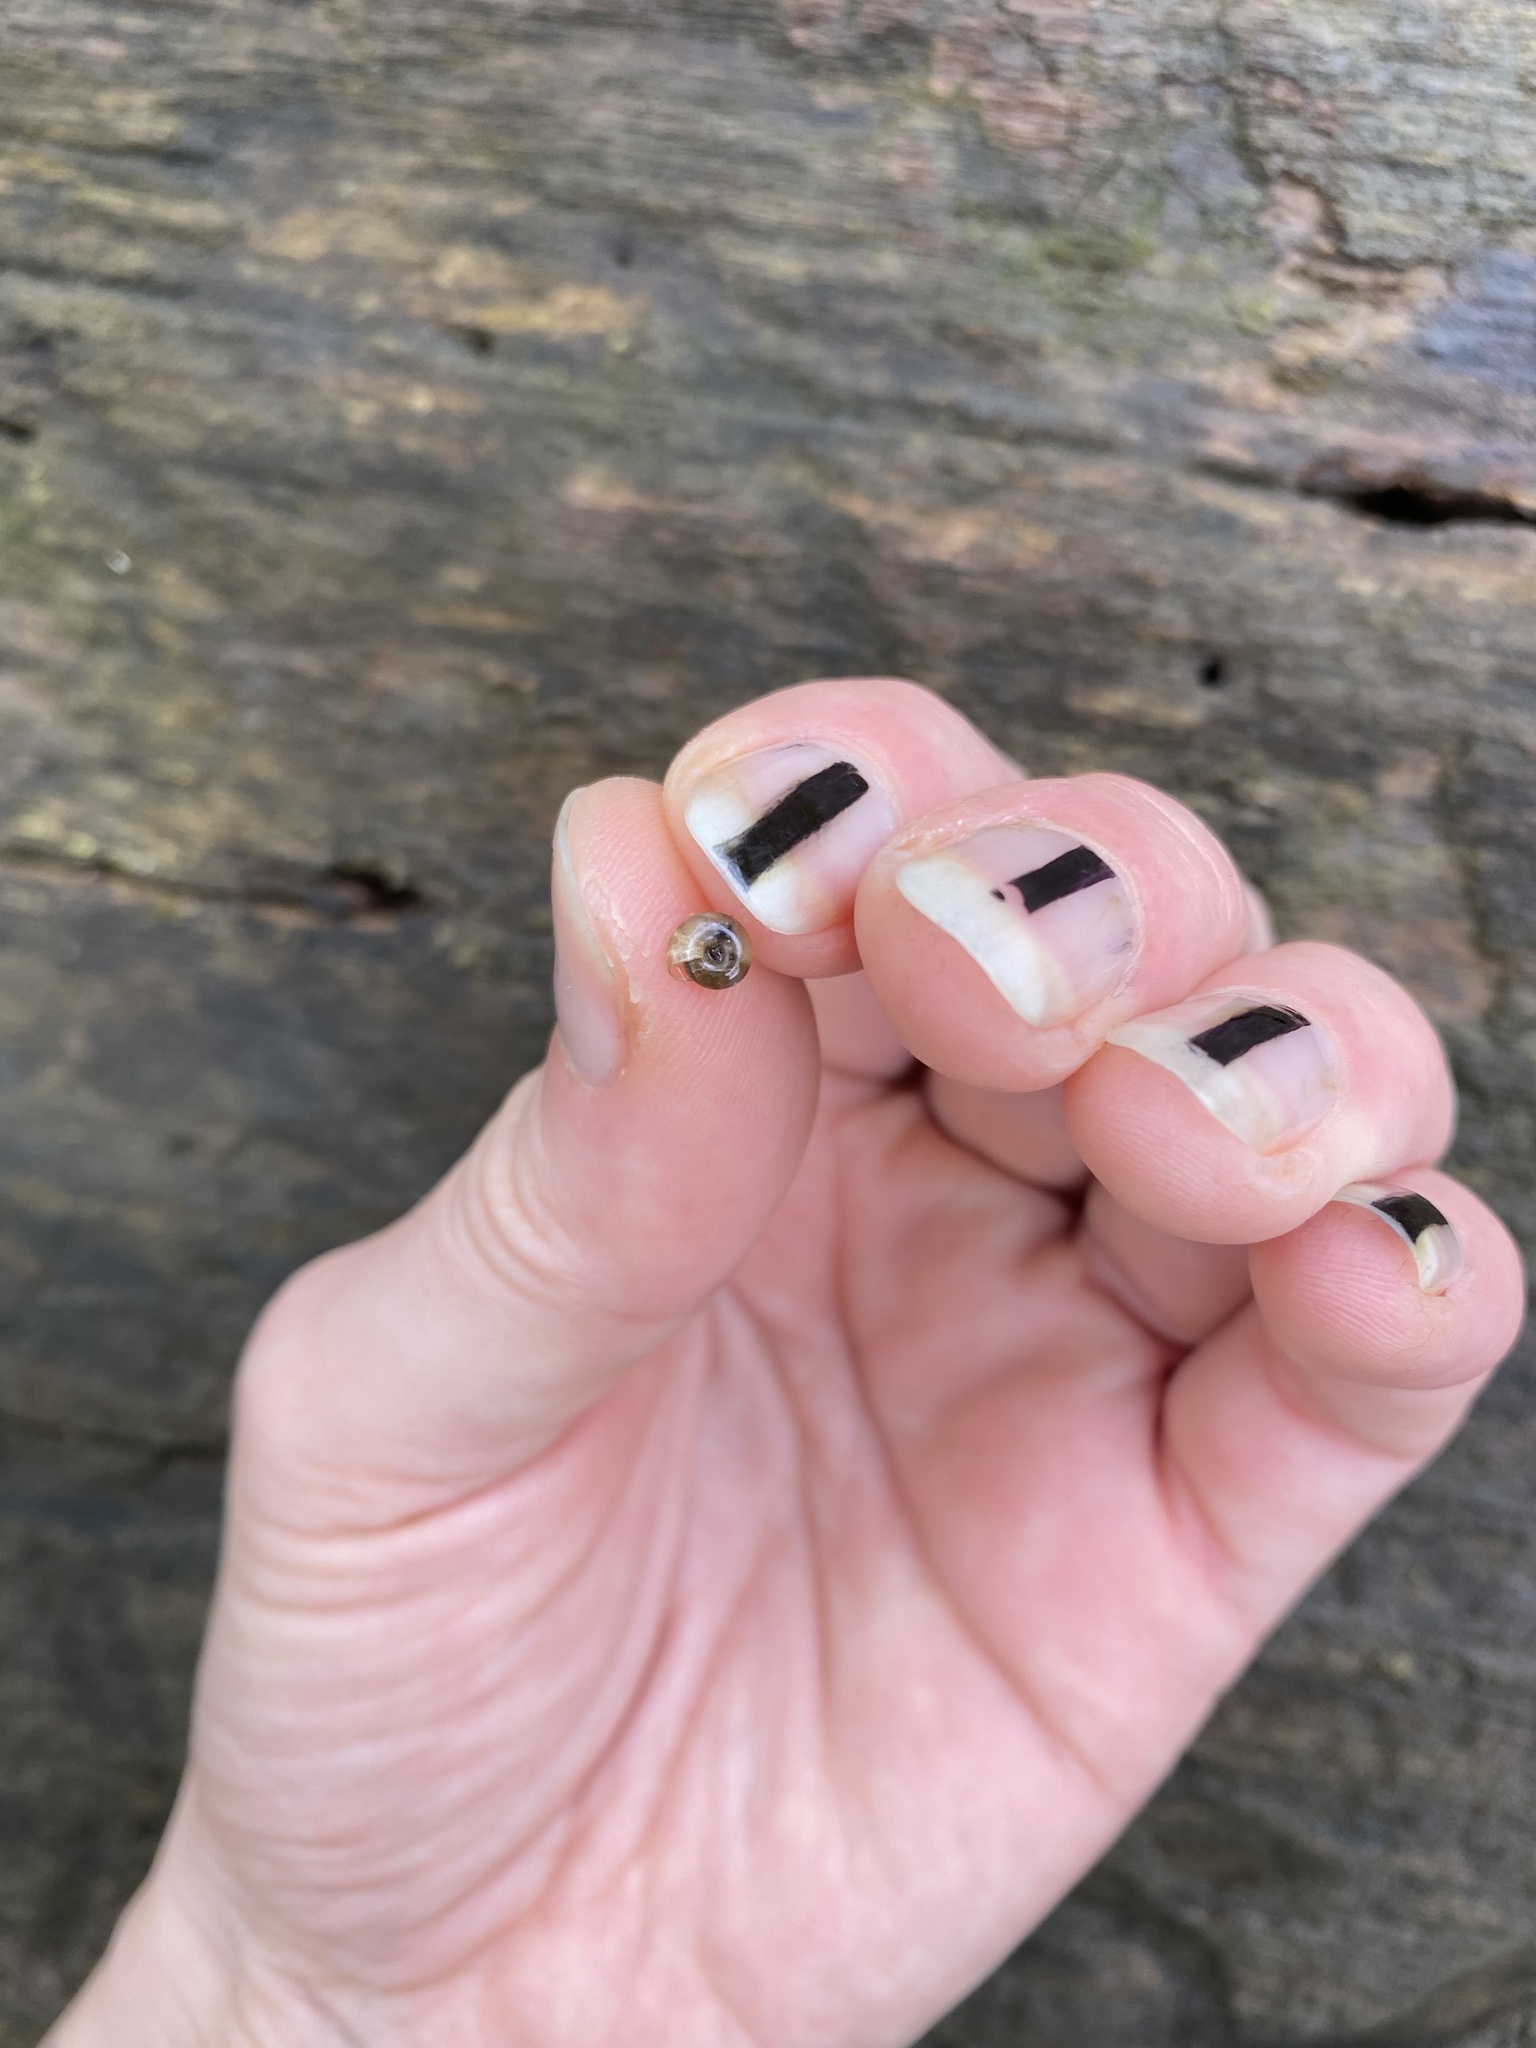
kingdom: Animalia
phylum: Mollusca
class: Gastropoda
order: Stylommatophora
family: Gastrodontidae
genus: Zonitoides
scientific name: Zonitoides arboreus
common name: Quick gloss
